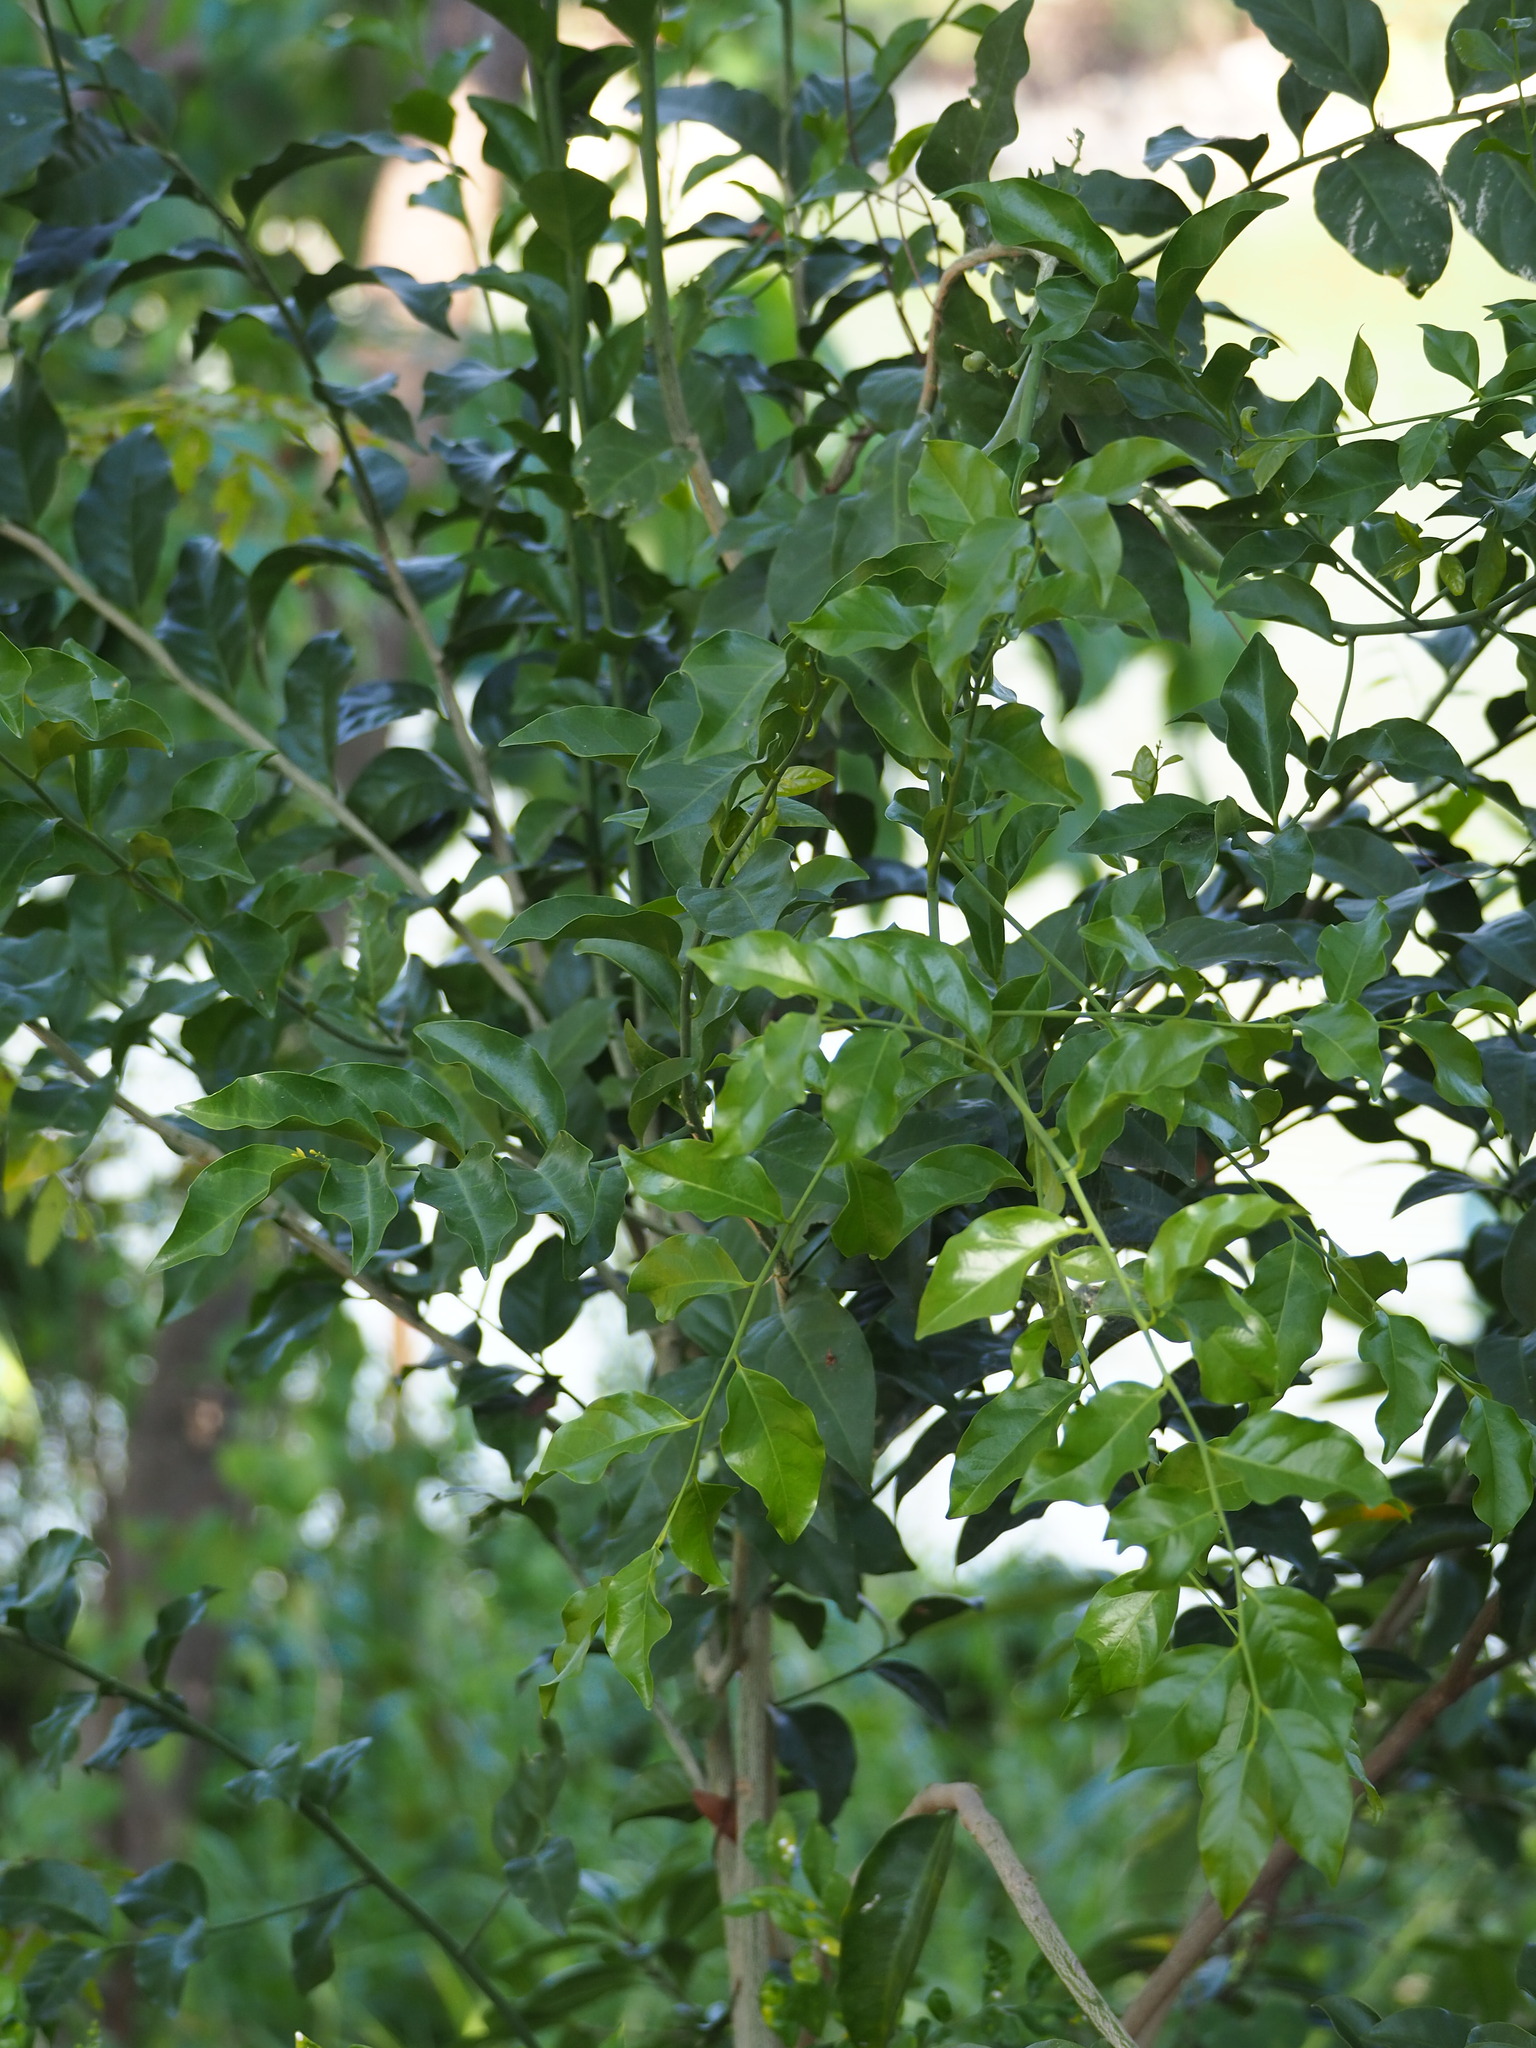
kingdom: Plantae
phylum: Tracheophyta
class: Magnoliopsida
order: Santalales
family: Opiliaceae
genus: Champereia
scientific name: Champereia manillana
